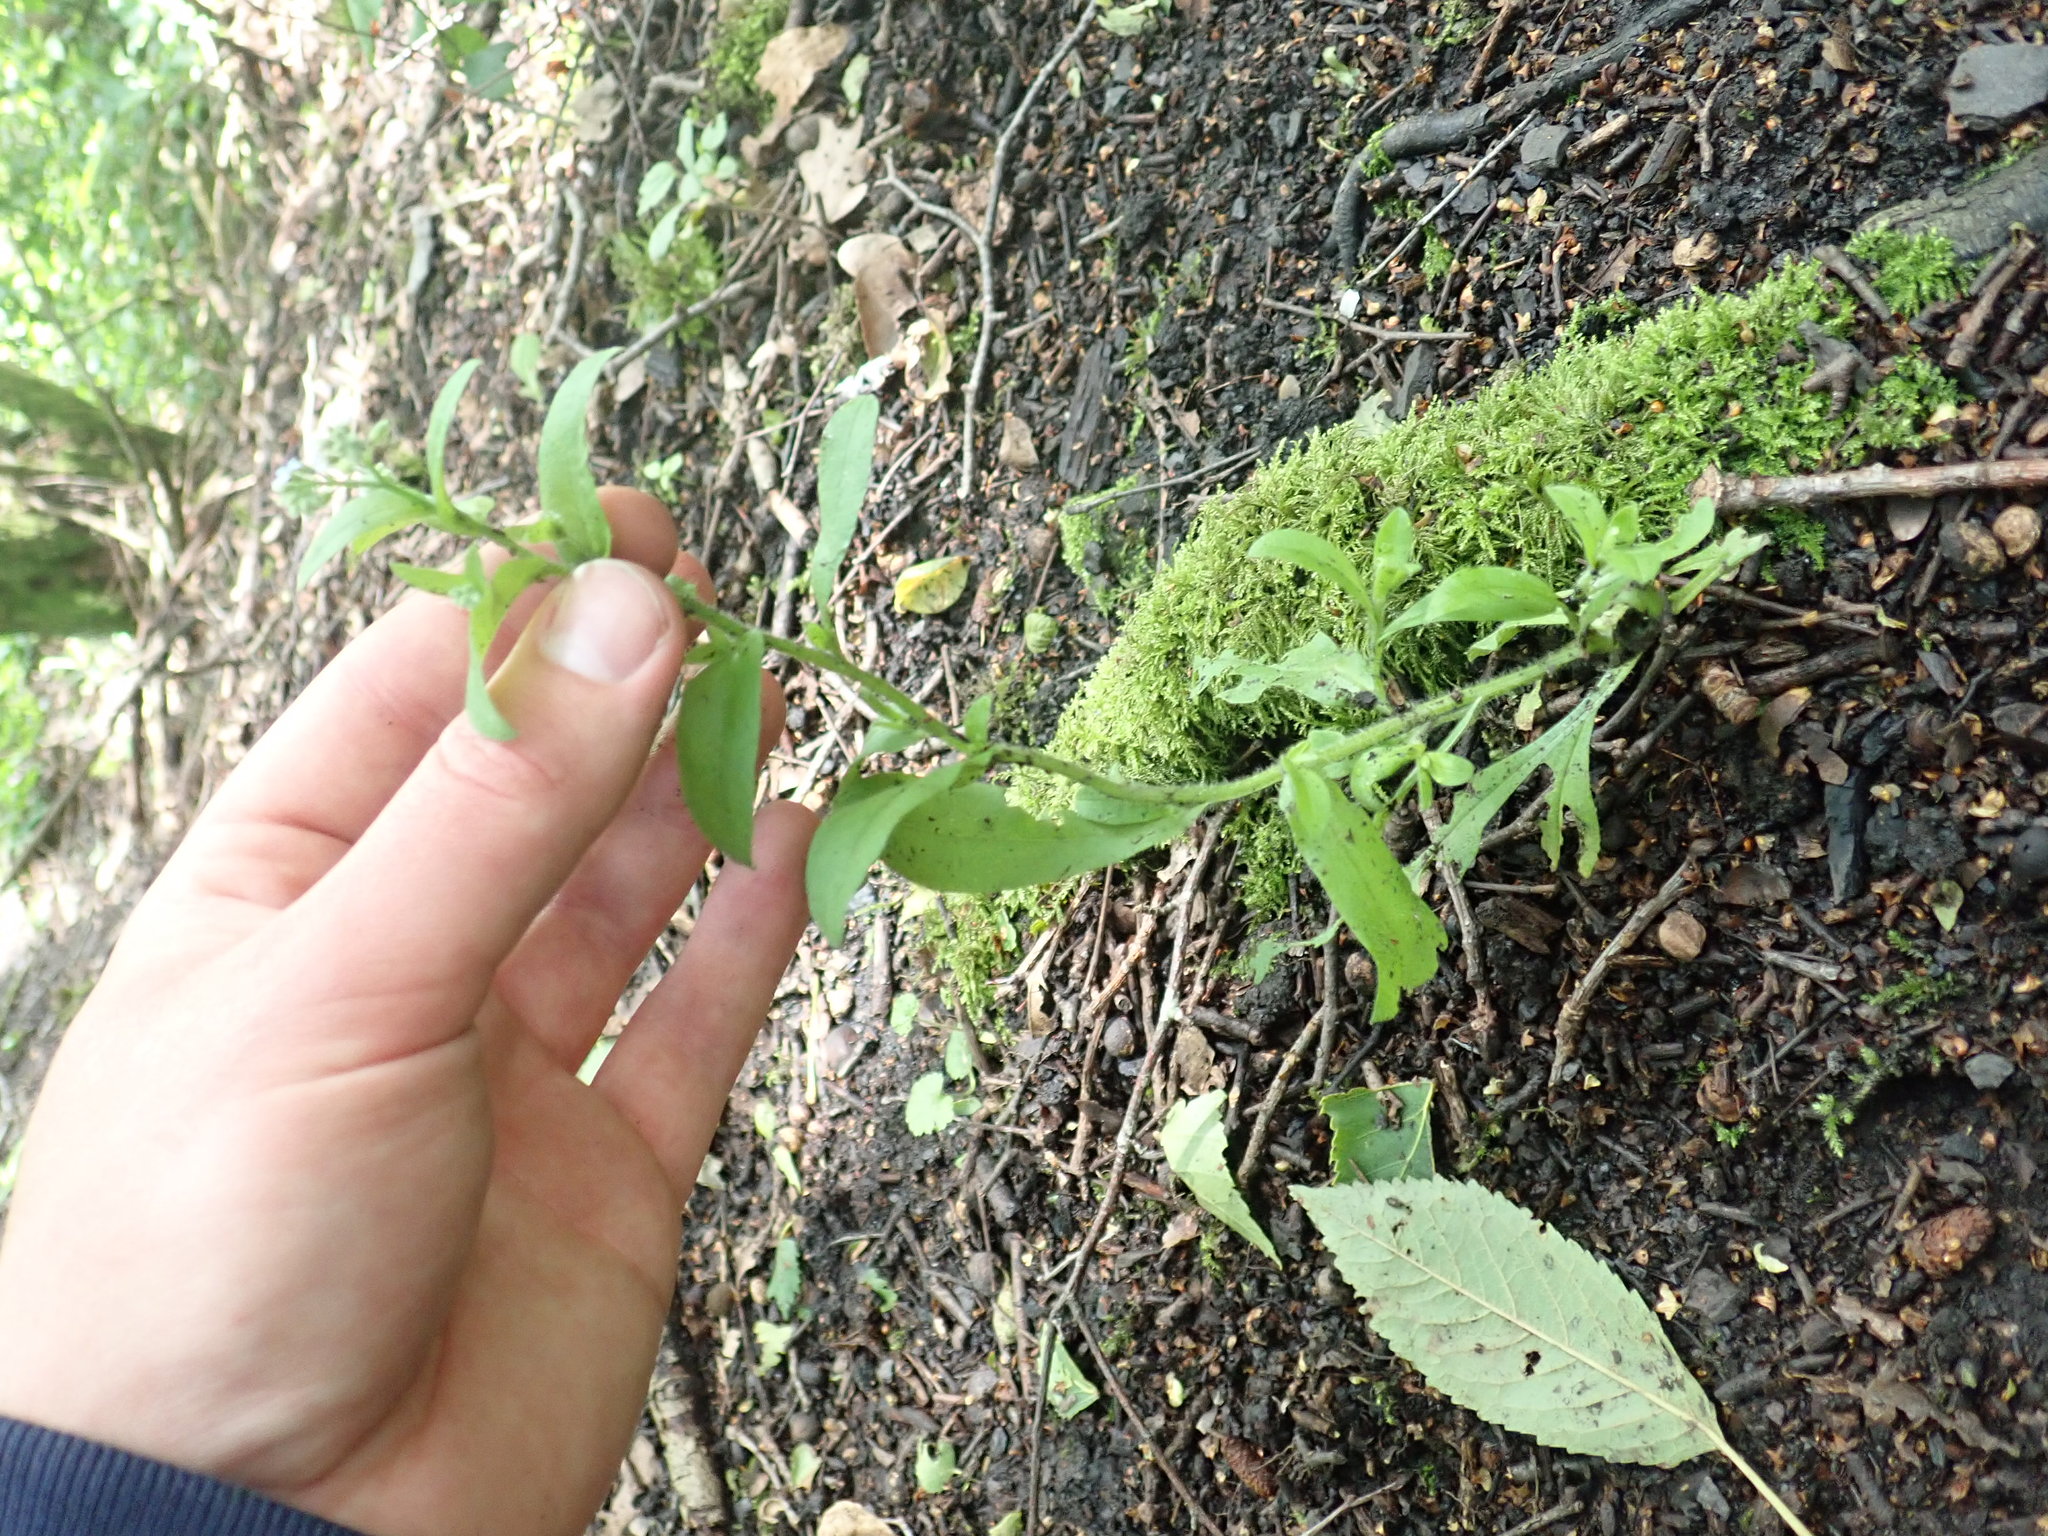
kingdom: Plantae
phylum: Tracheophyta
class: Magnoliopsida
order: Boraginales
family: Boraginaceae
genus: Myosotis
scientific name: Myosotis arvensis
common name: Field forget-me-not
